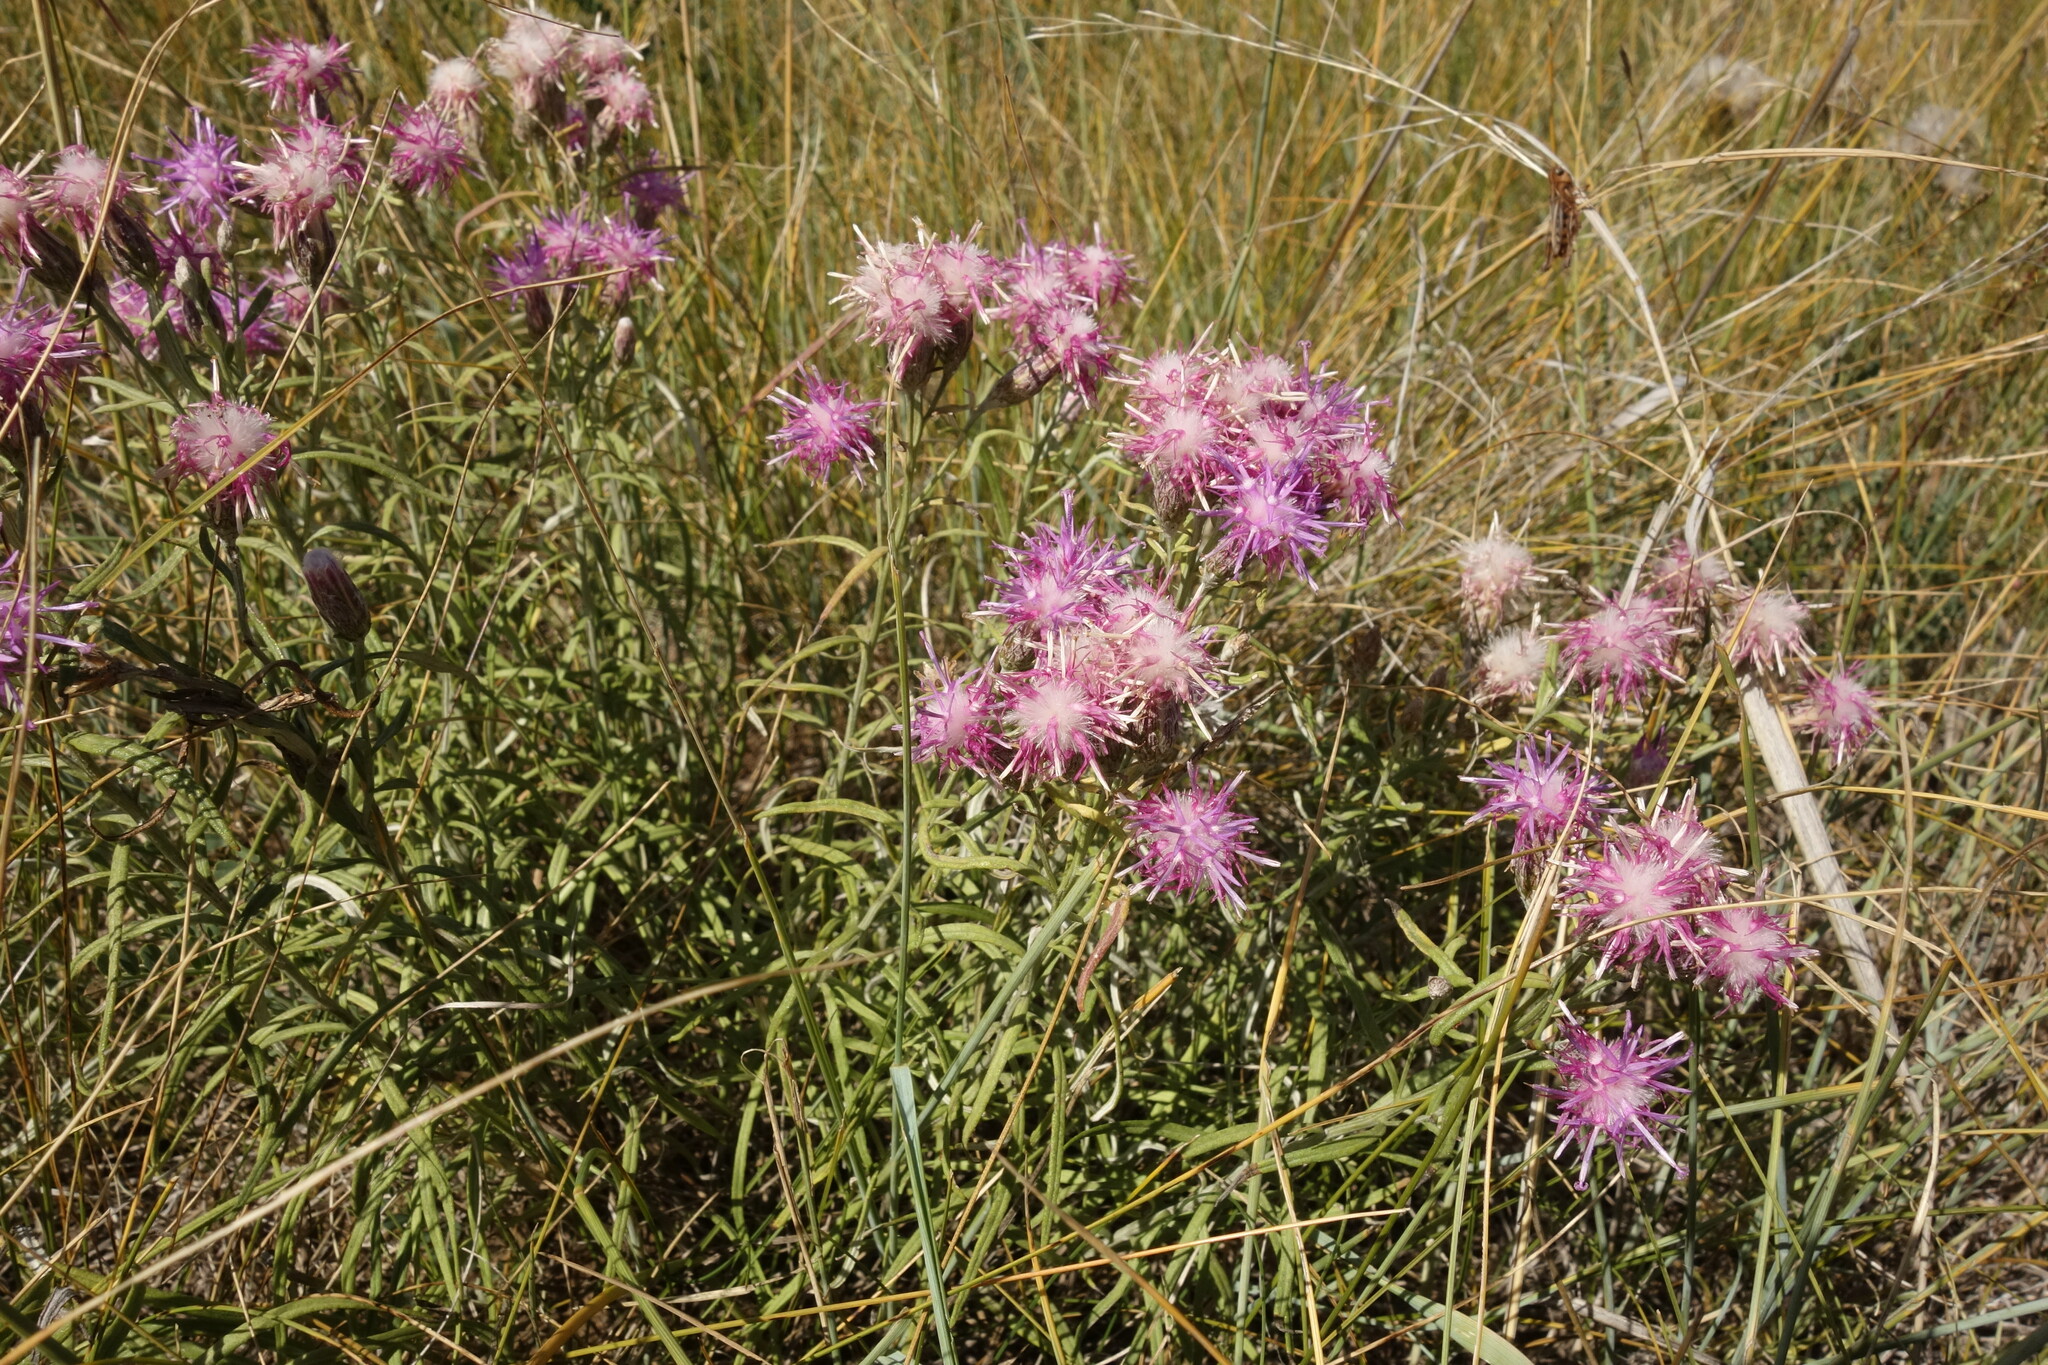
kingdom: Plantae
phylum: Tracheophyta
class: Magnoliopsida
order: Asterales
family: Asteraceae
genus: Saussurea
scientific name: Saussurea salicifolia
